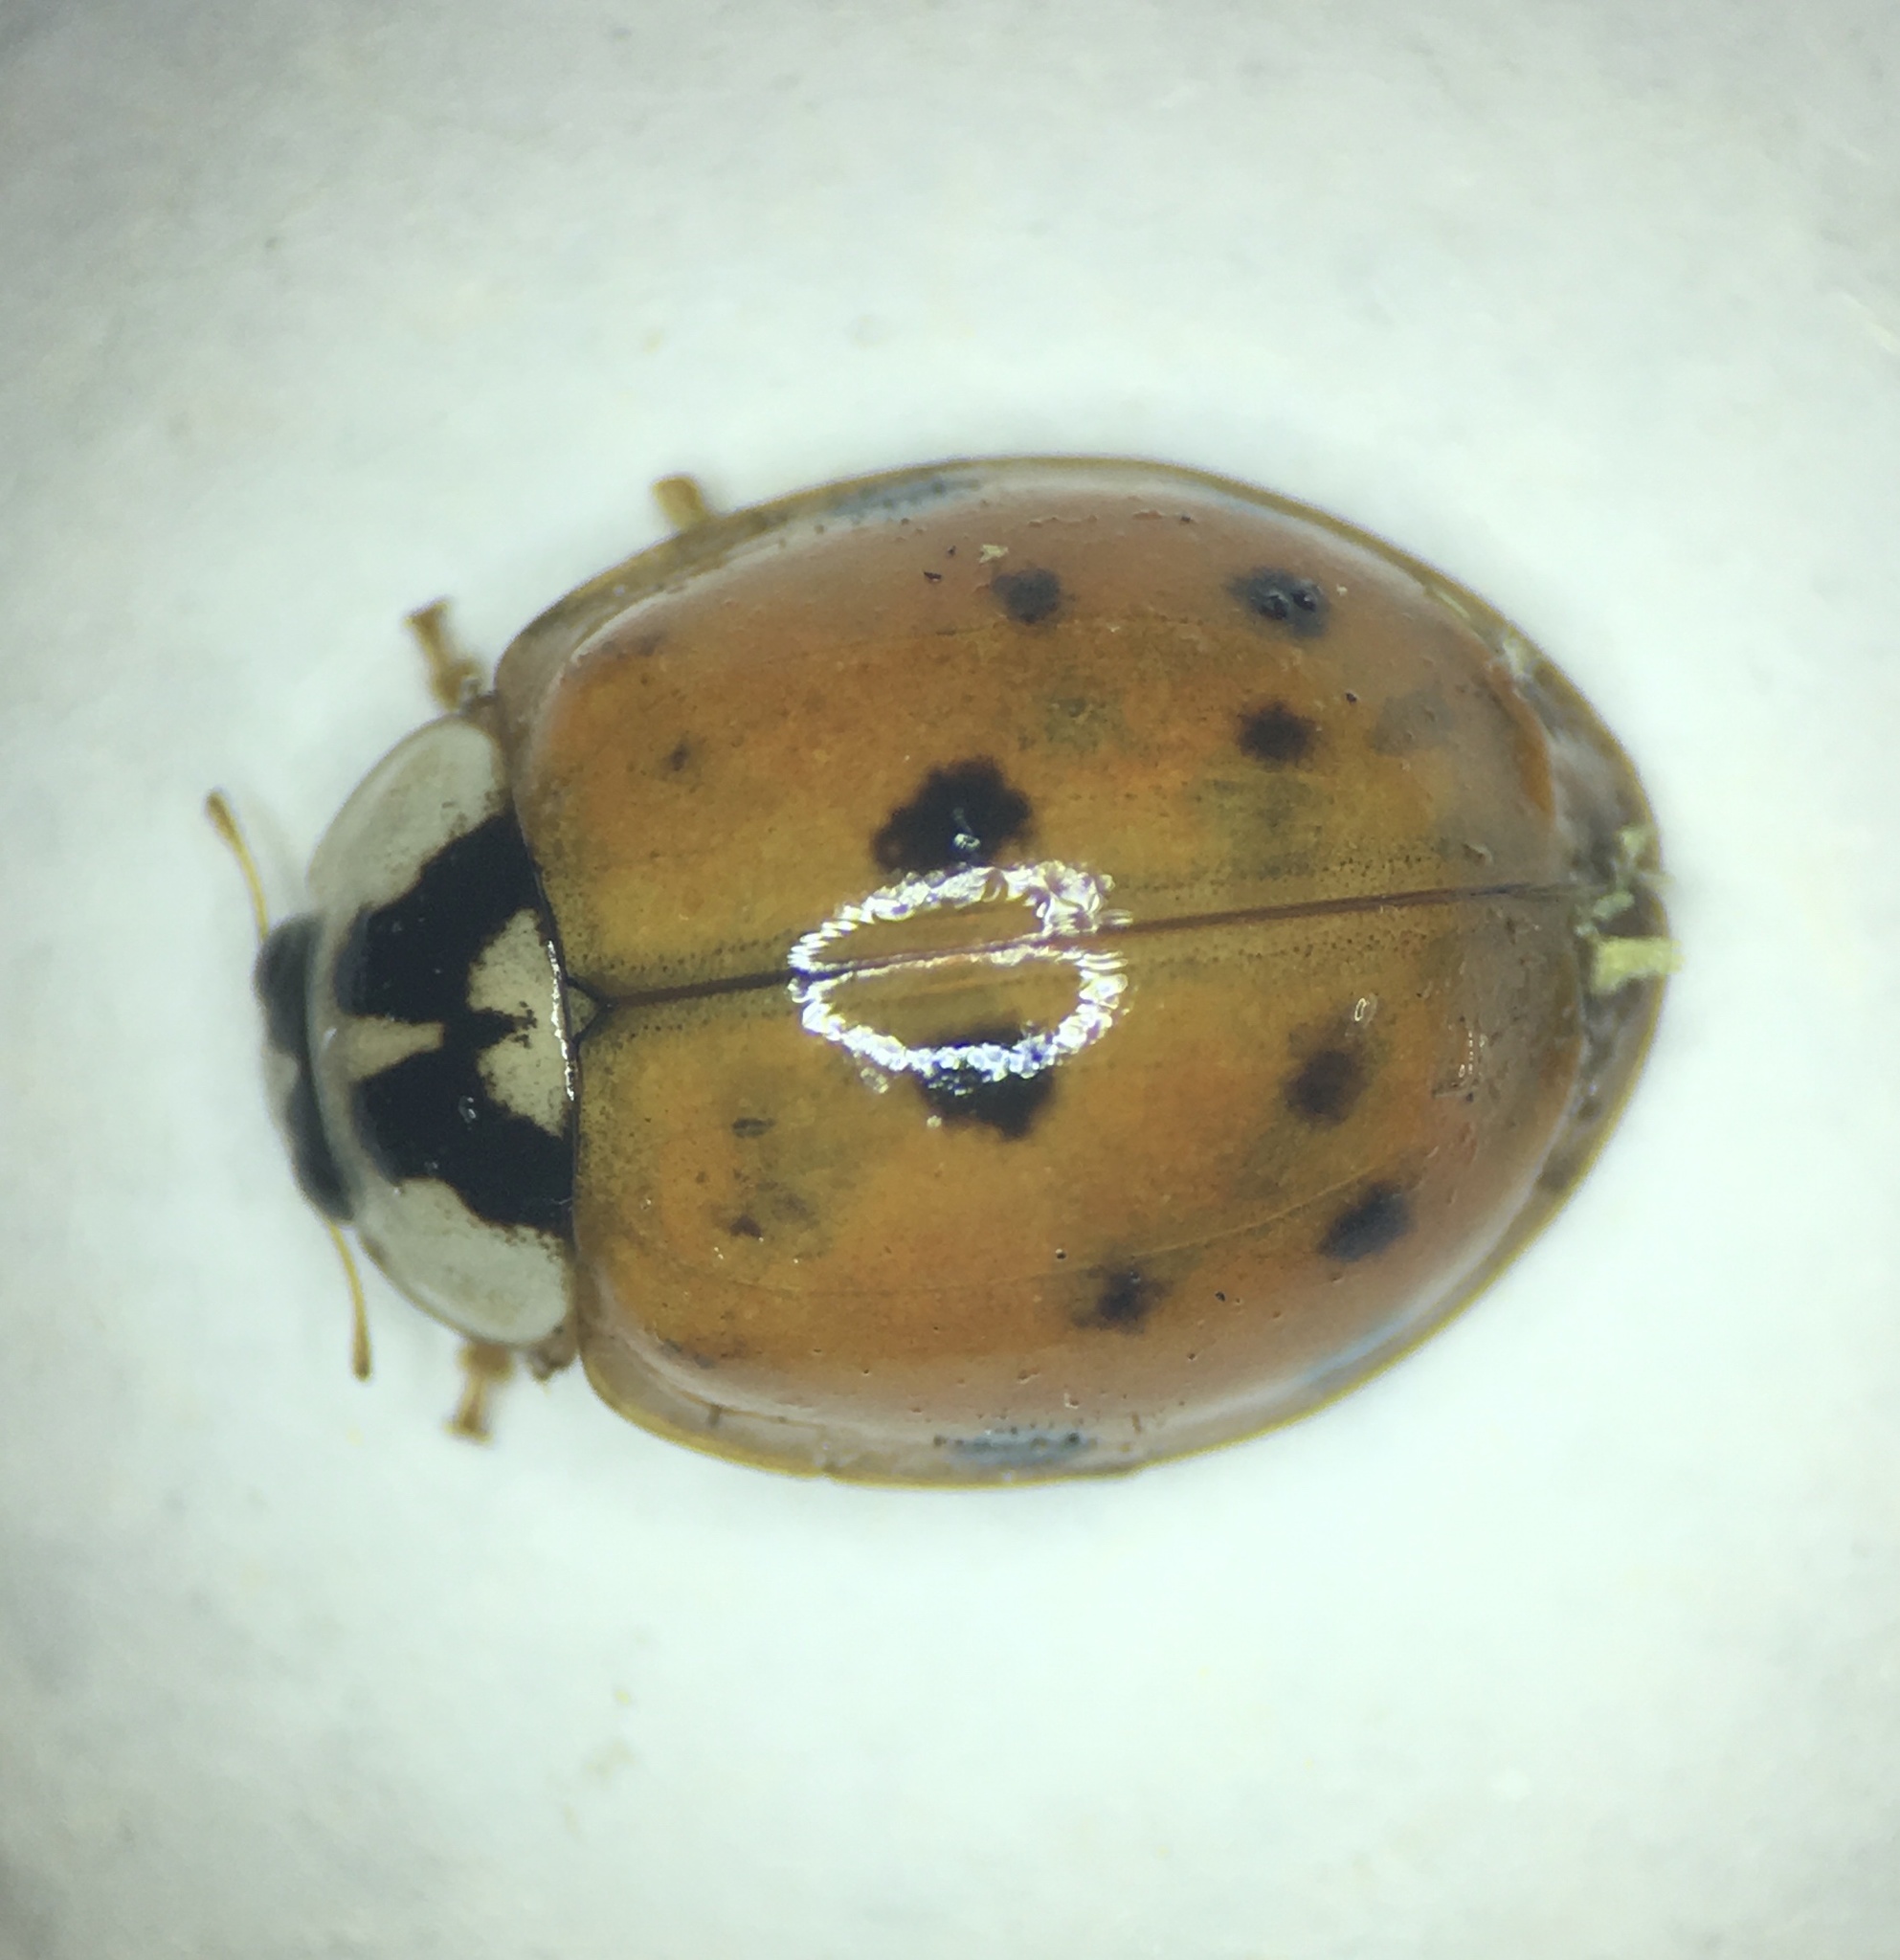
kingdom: Fungi
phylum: Ascomycota
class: Laboulbeniomycetes
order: Laboulbeniales
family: Laboulbeniaceae
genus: Hesperomyces
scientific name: Hesperomyces harmoniae
